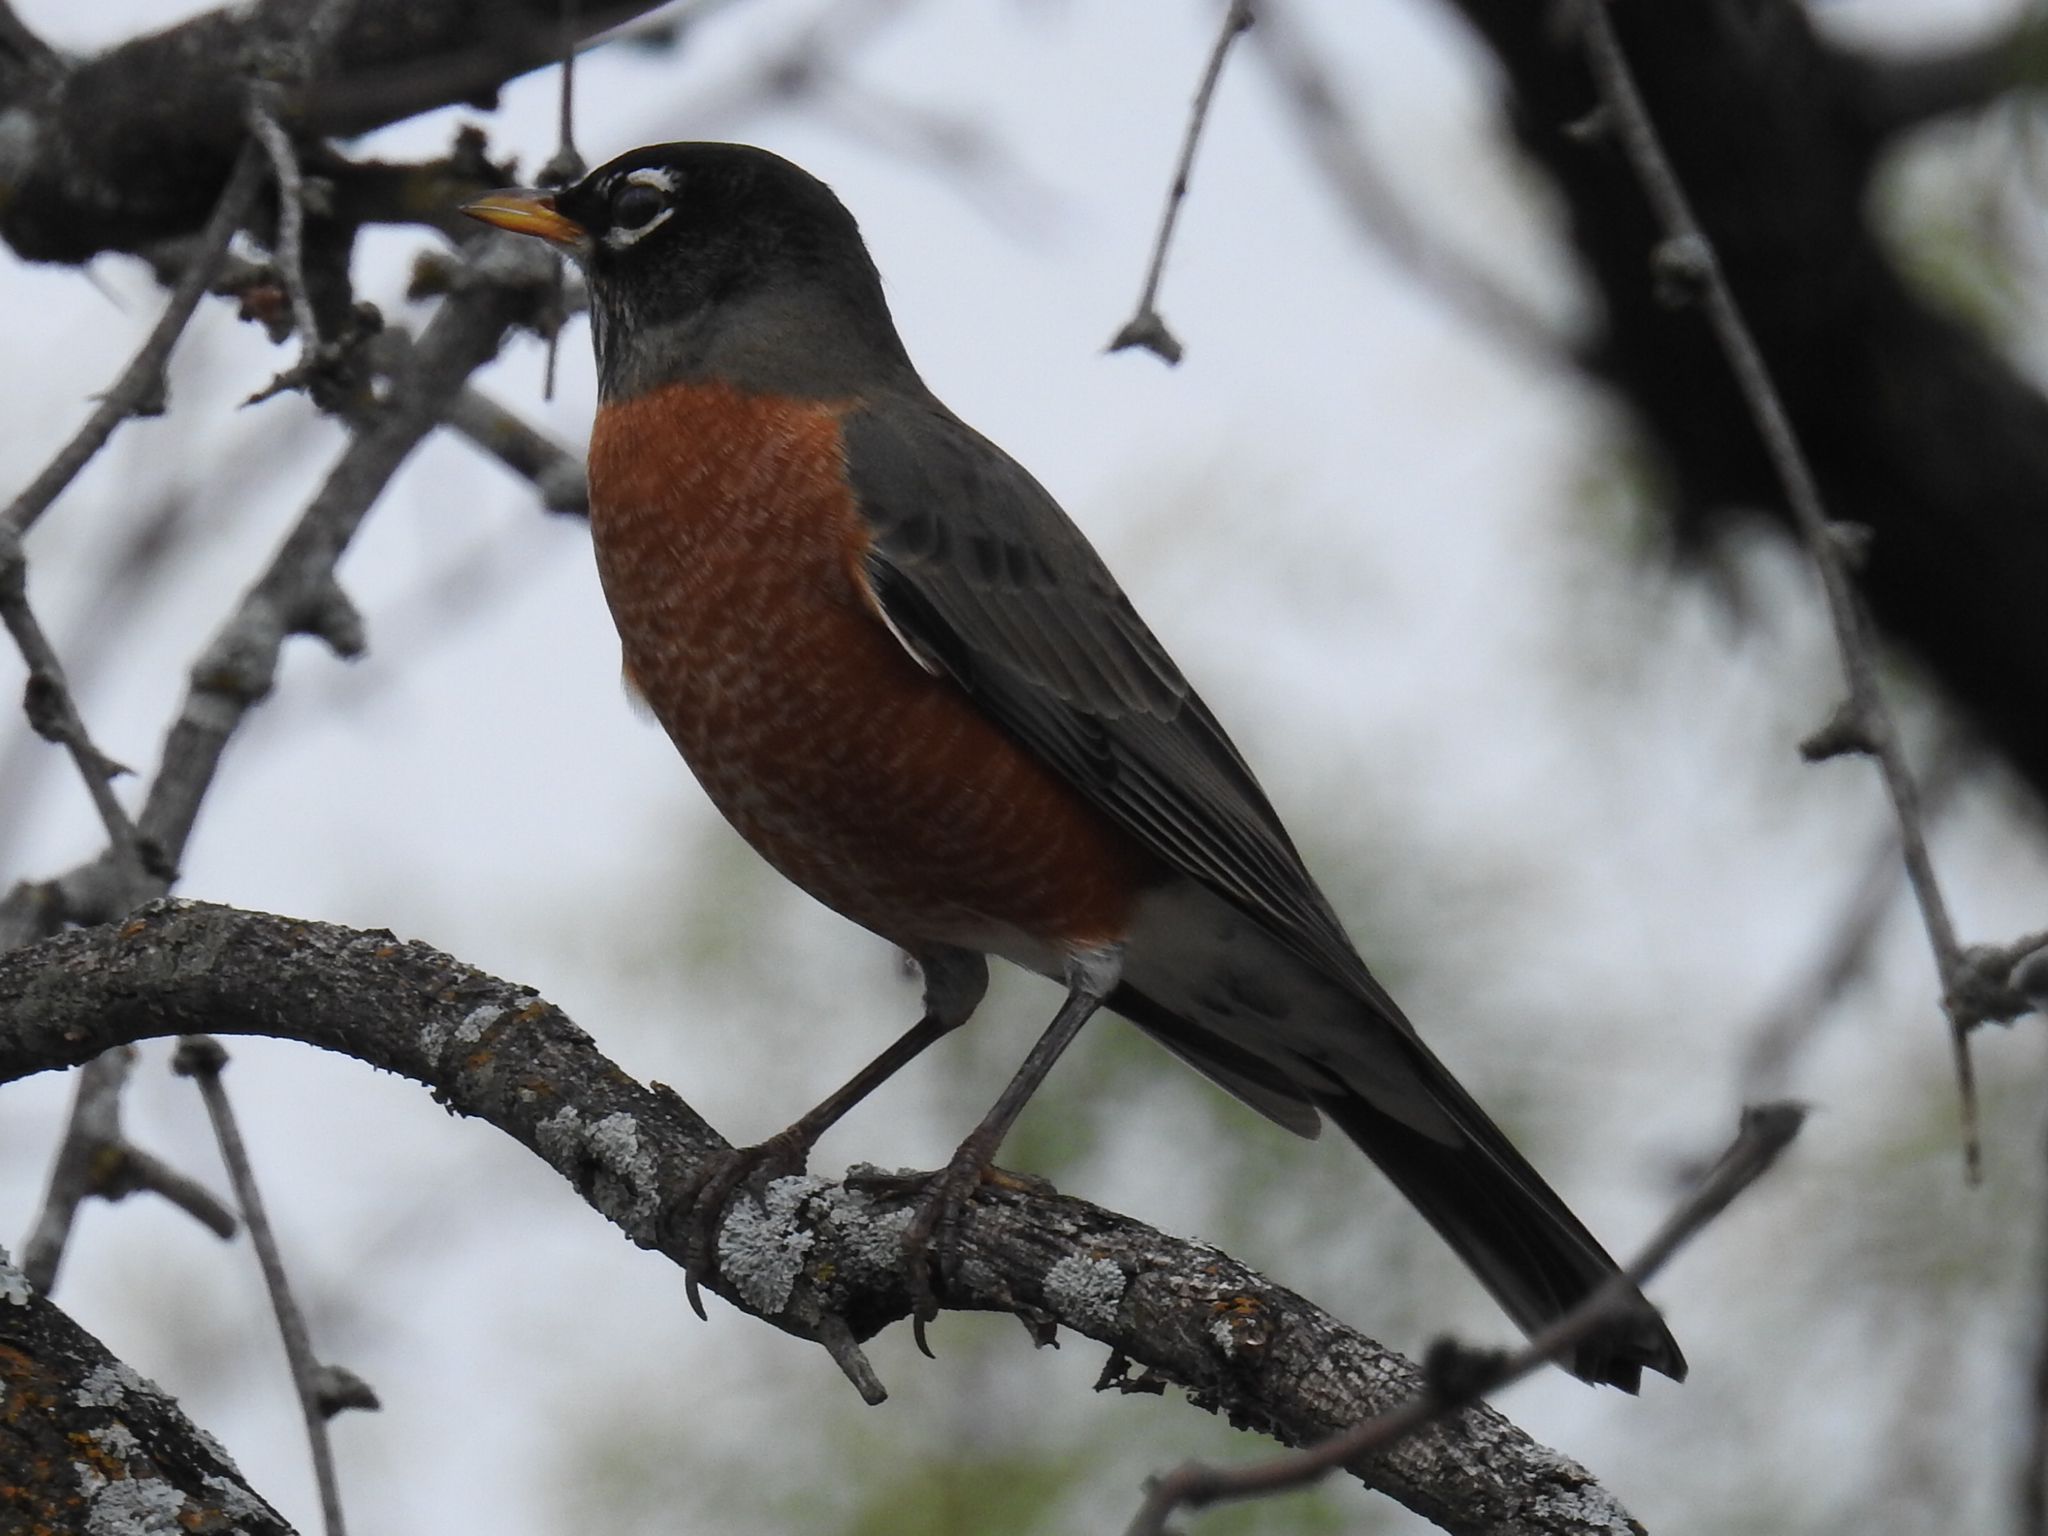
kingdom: Animalia
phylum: Chordata
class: Aves
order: Passeriformes
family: Turdidae
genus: Turdus
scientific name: Turdus migratorius
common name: American robin
